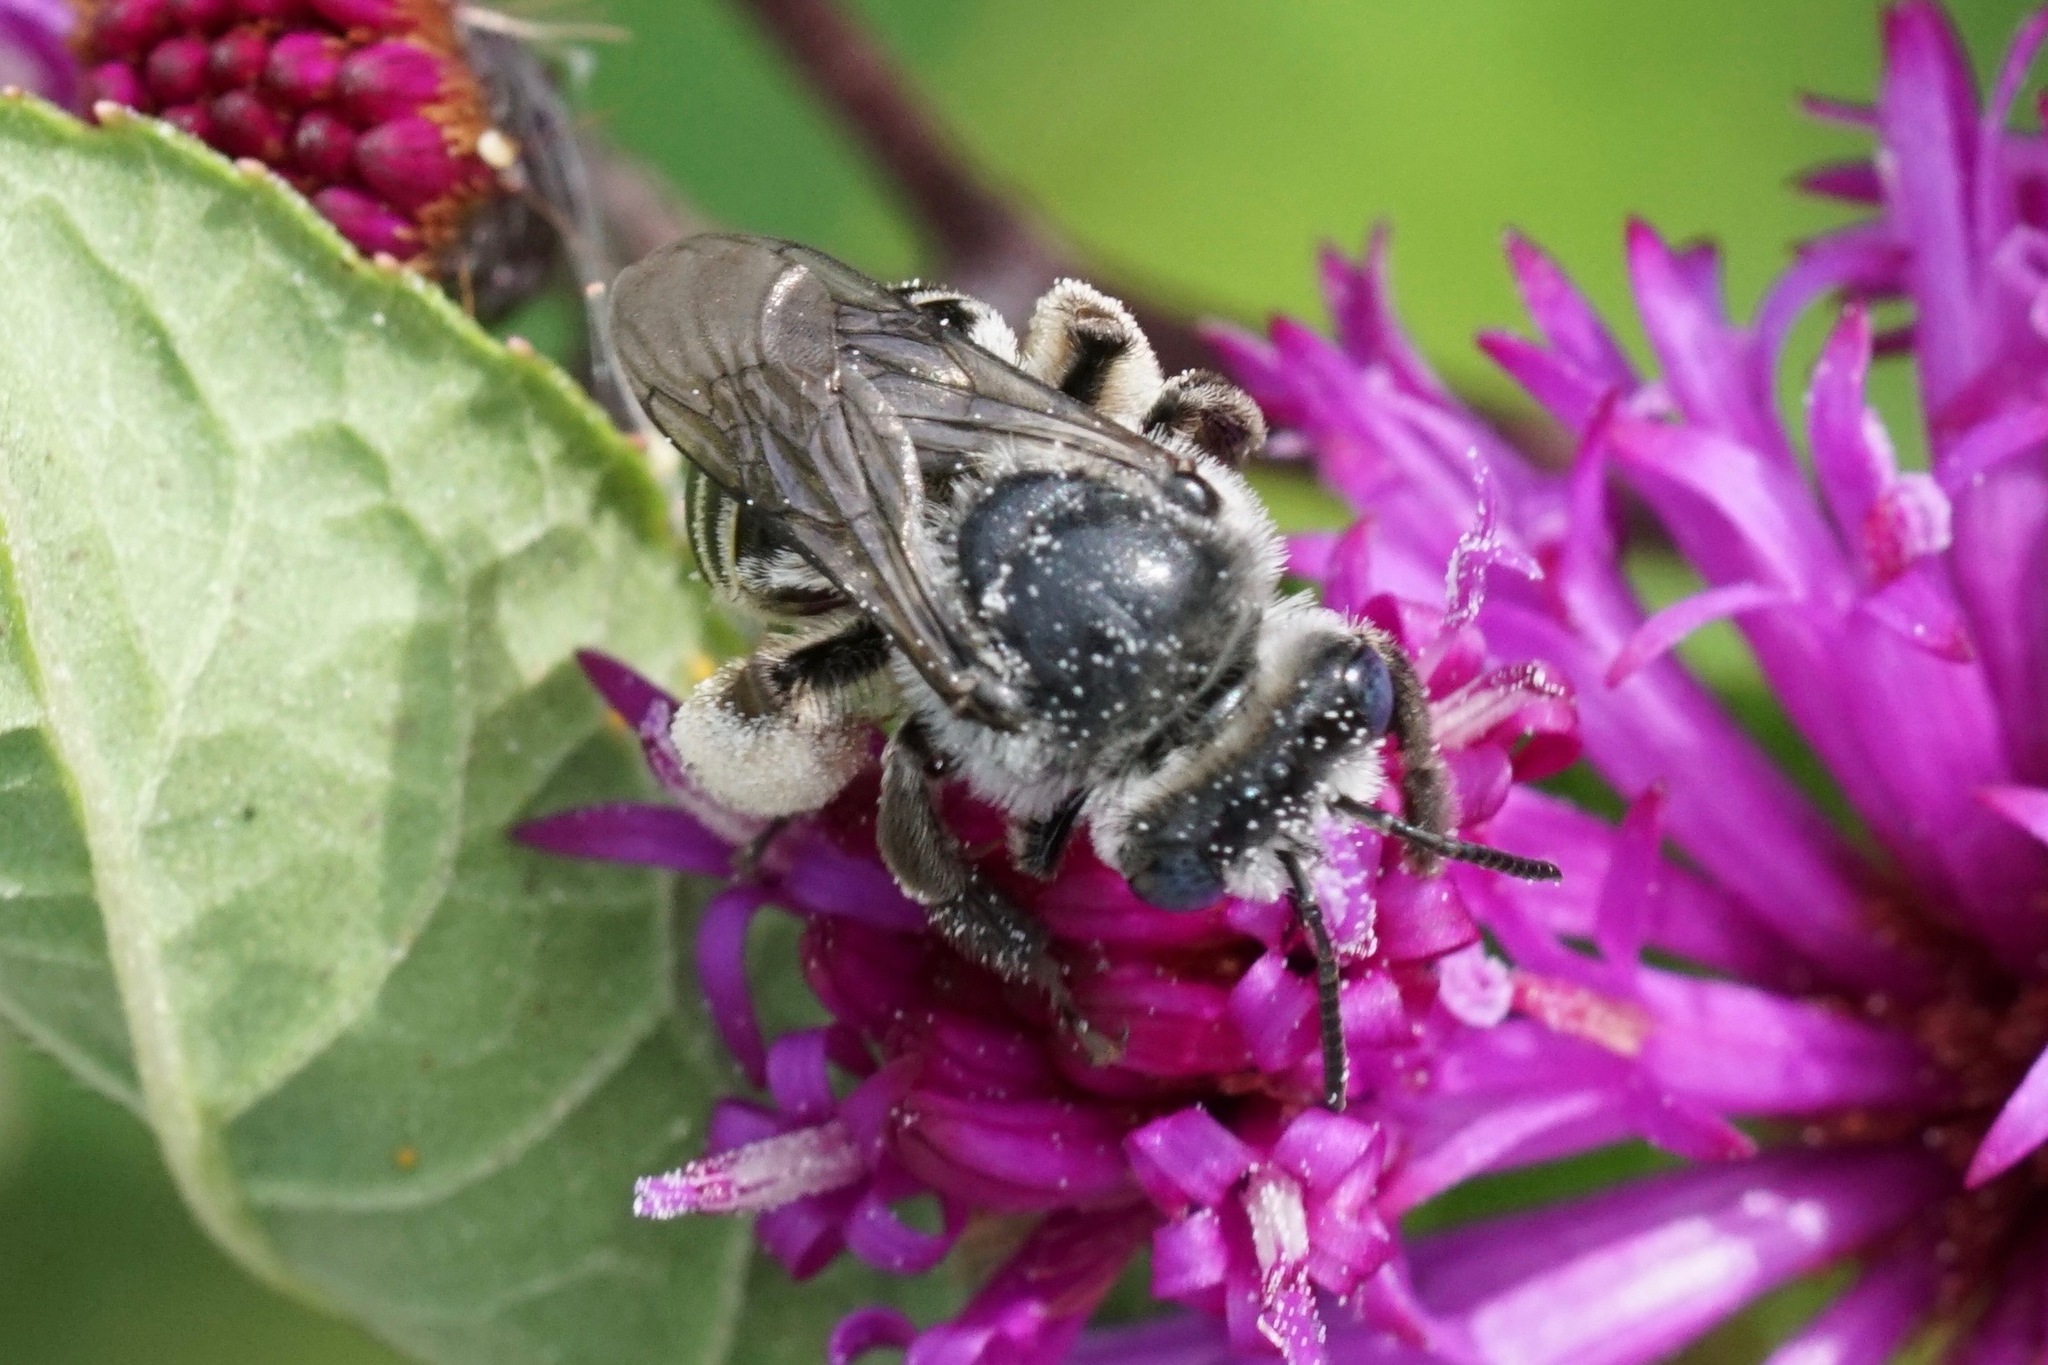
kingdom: Animalia
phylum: Arthropoda
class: Insecta
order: Hymenoptera
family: Apidae
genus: Melissodes
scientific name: Melissodes denticulatus
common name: Denticulate long-horned bee
